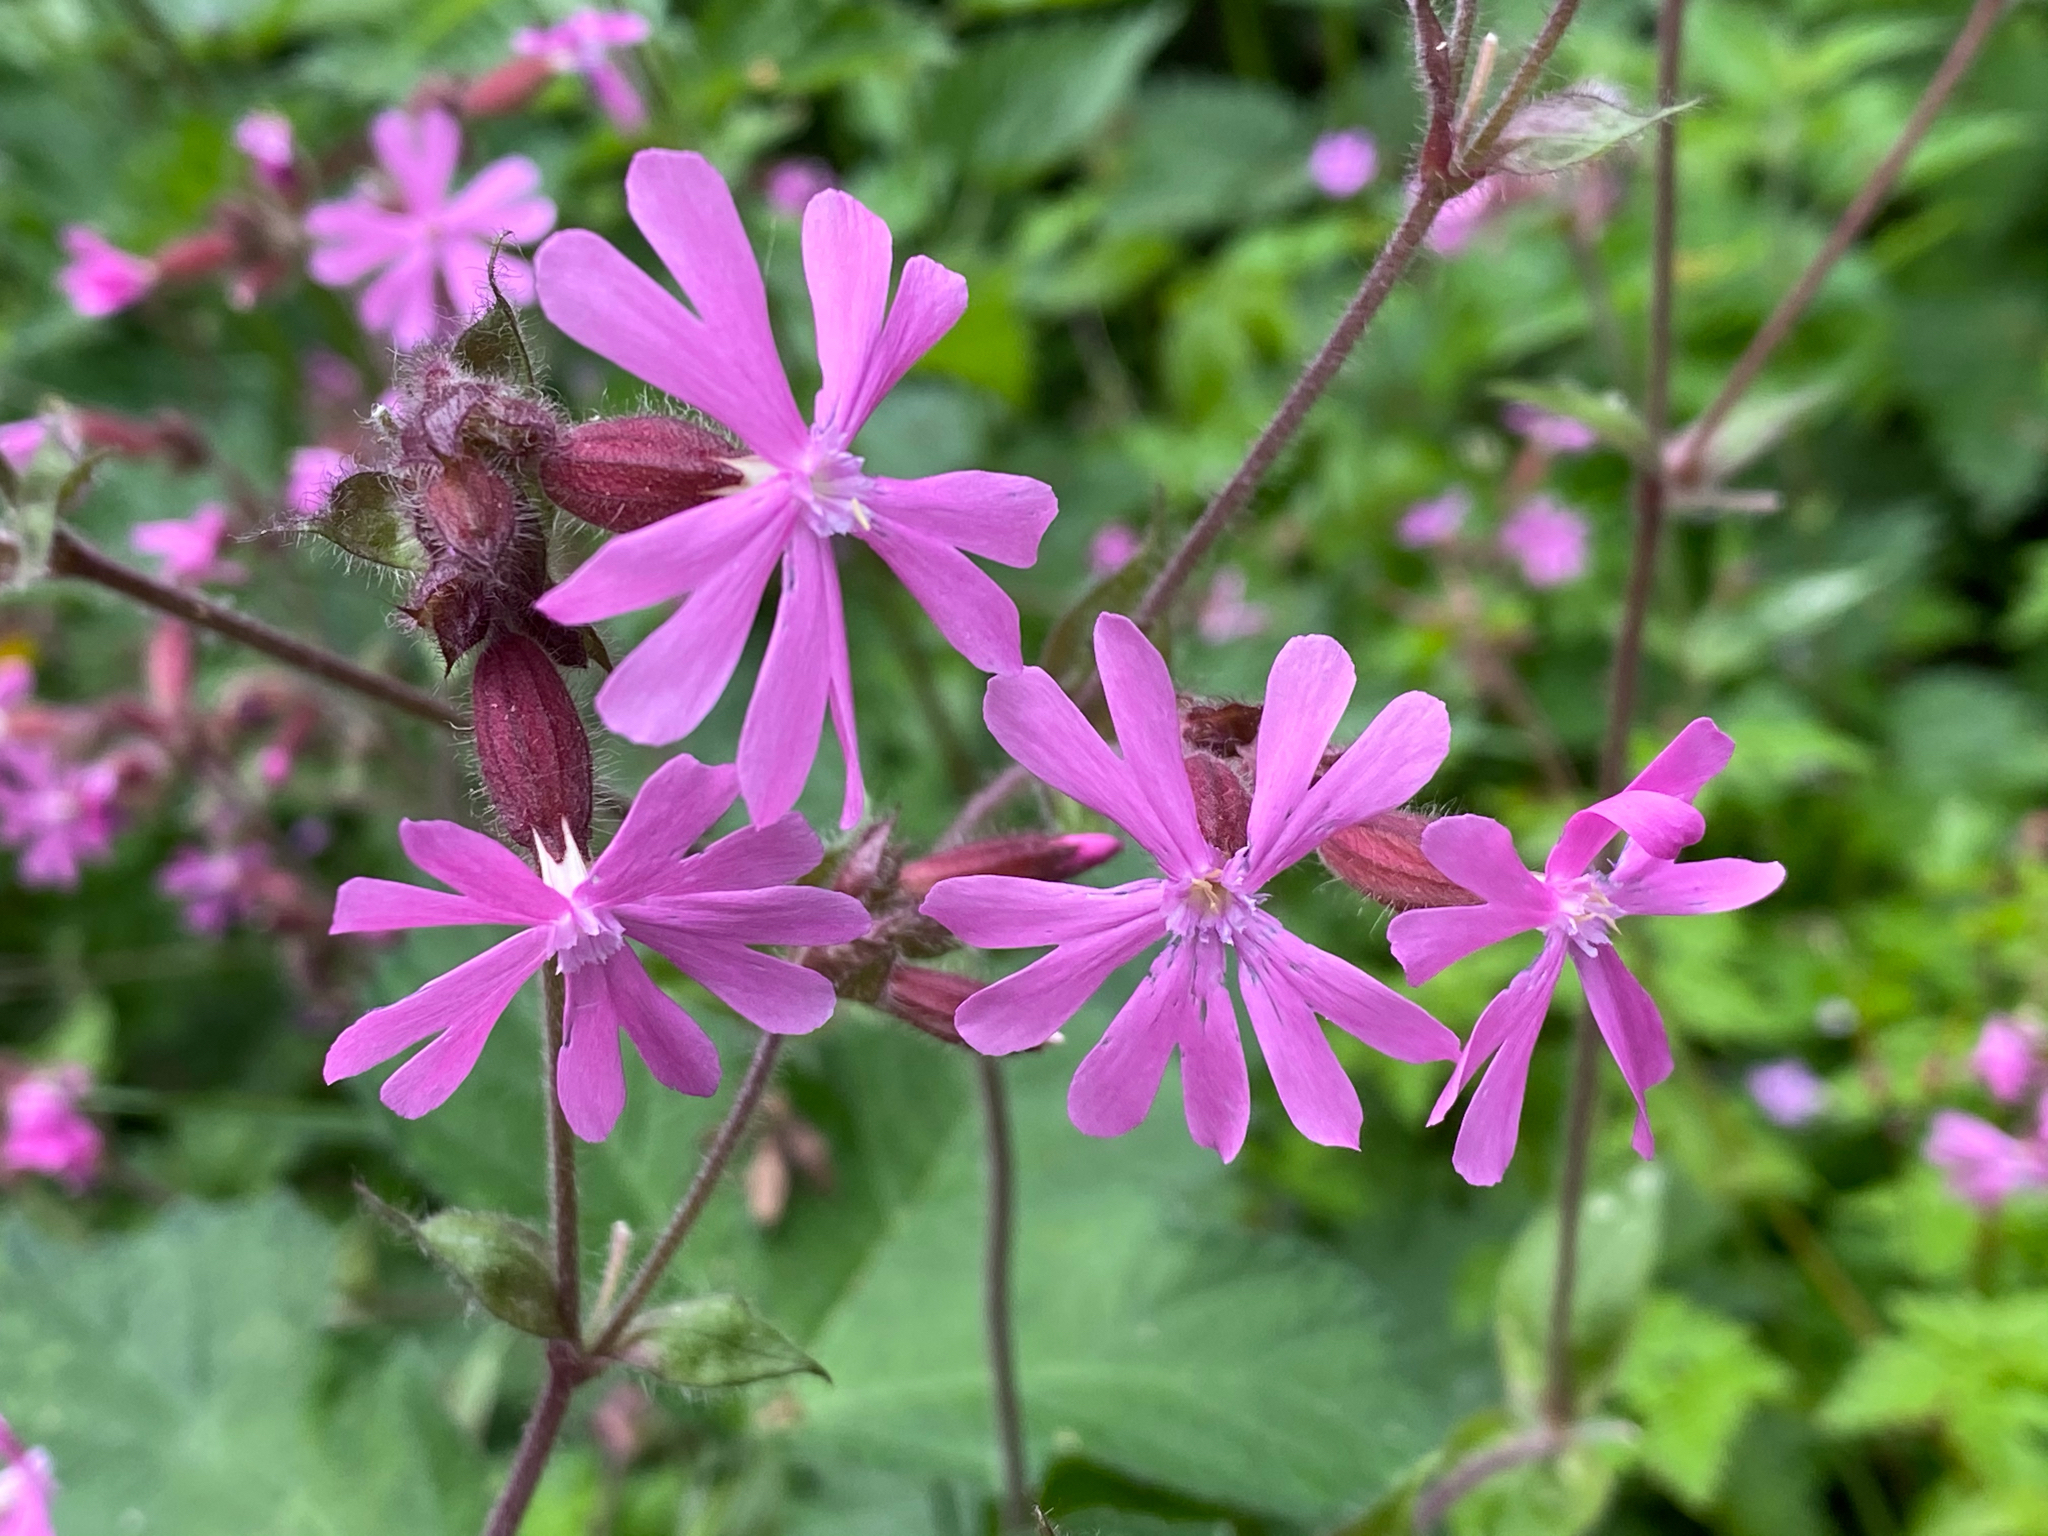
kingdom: Plantae
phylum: Tracheophyta
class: Magnoliopsida
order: Caryophyllales
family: Caryophyllaceae
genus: Silene
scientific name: Silene dioica
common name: Red campion
